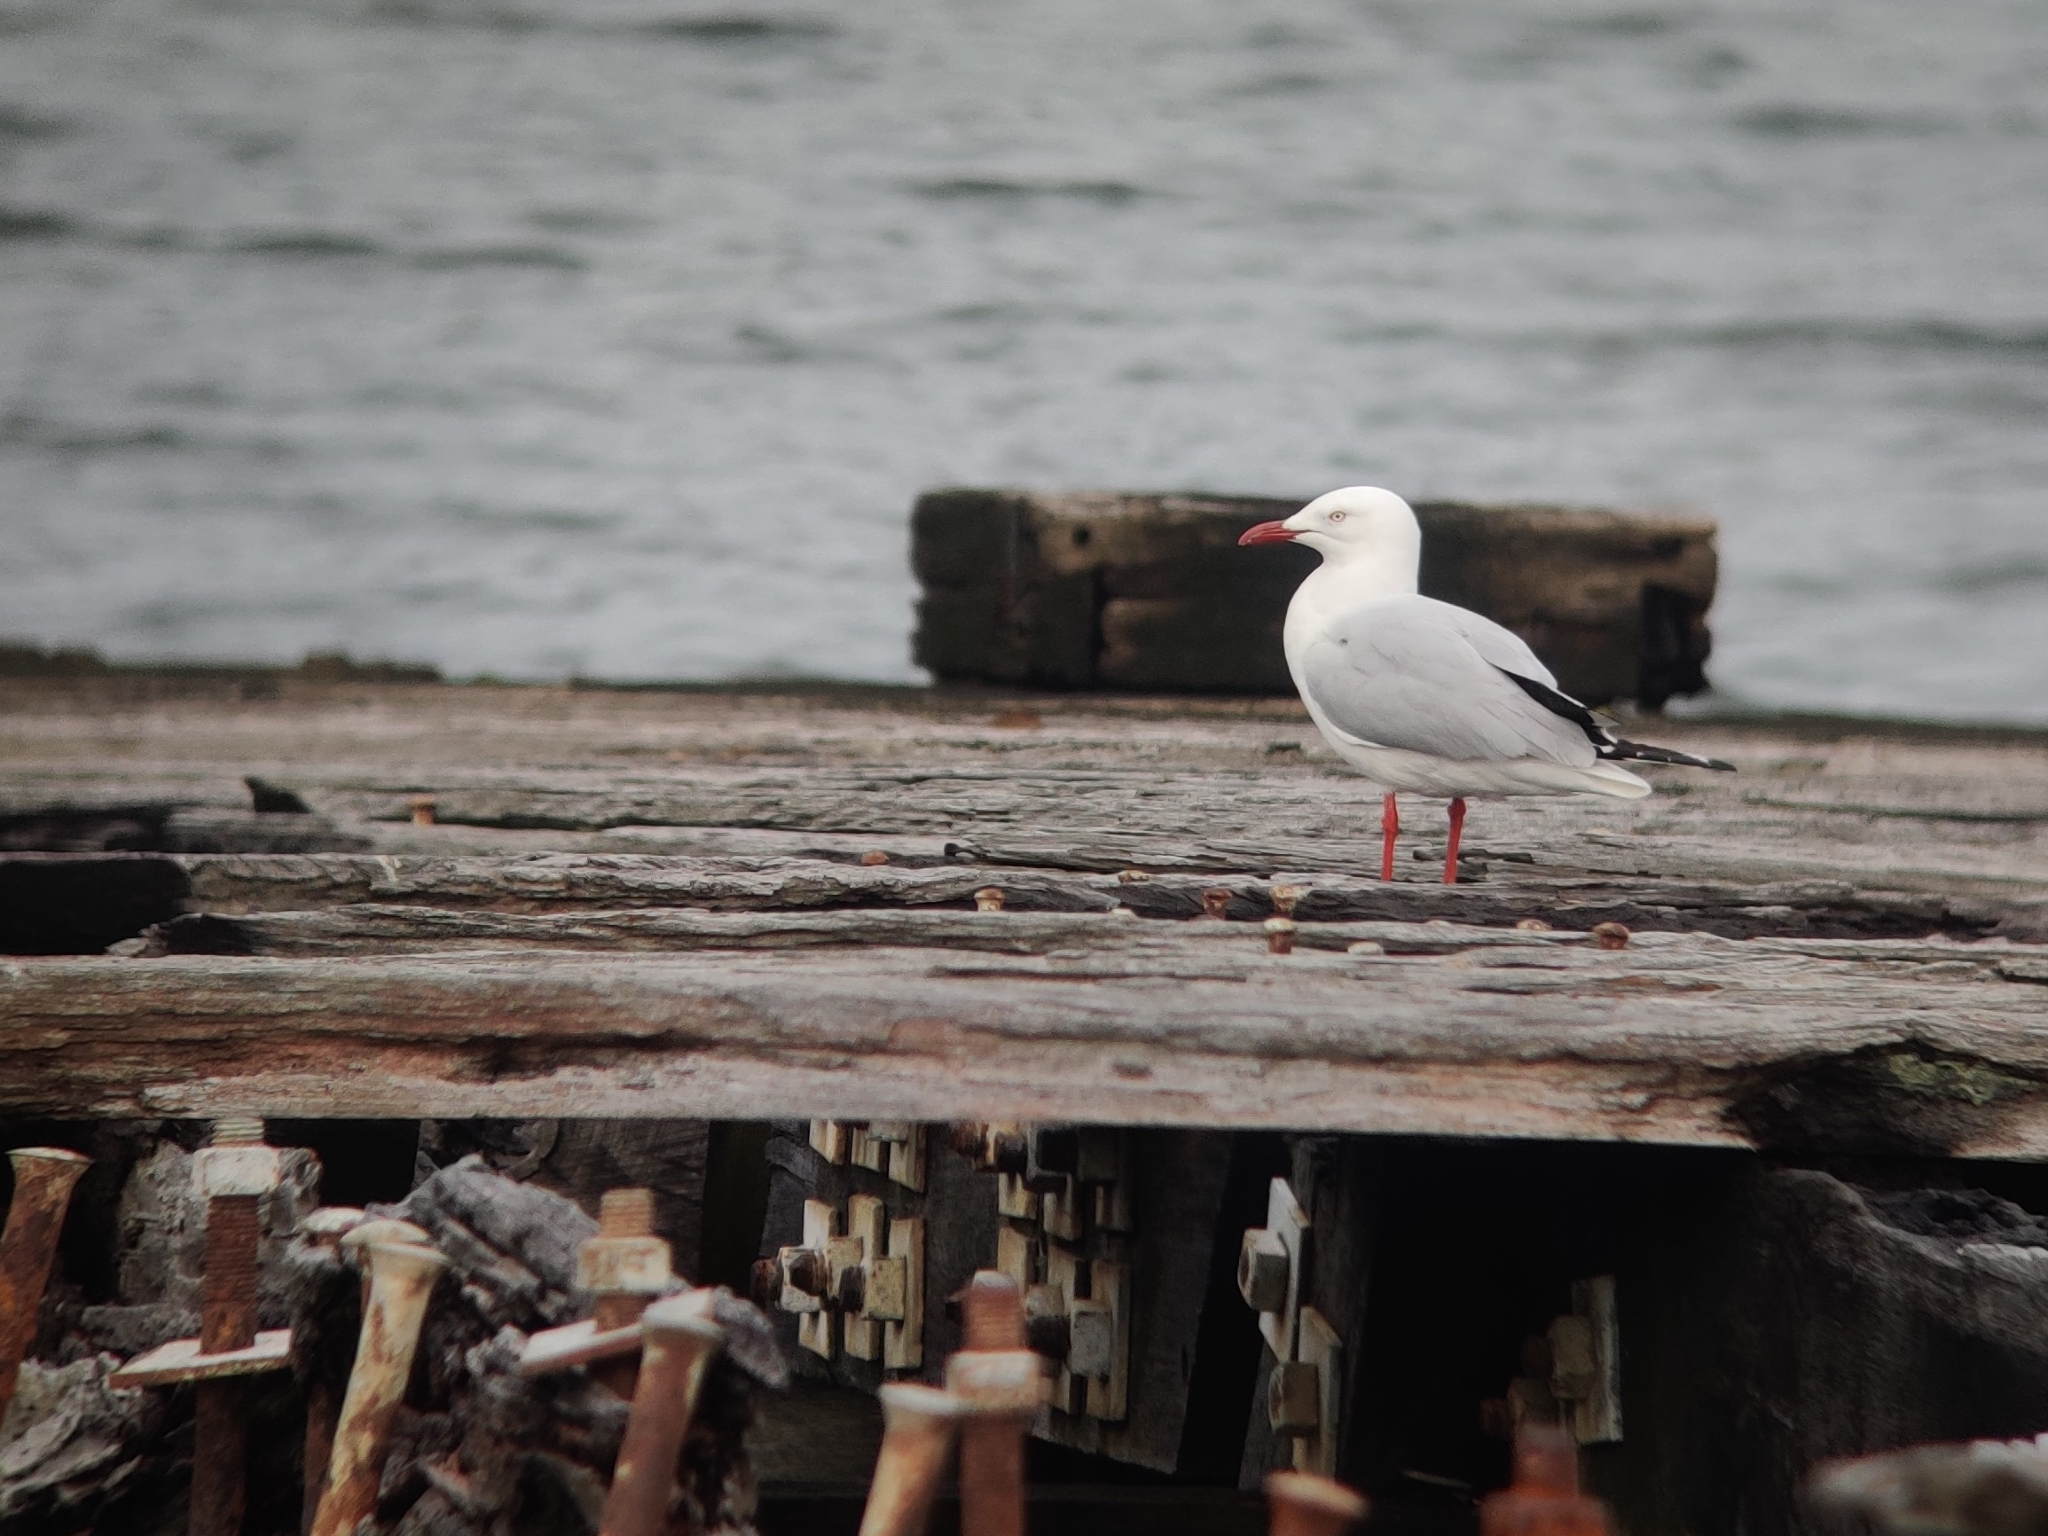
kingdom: Animalia
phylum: Chordata
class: Aves
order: Charadriiformes
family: Laridae
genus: Chroicocephalus
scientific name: Chroicocephalus novaehollandiae
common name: Silver gull
